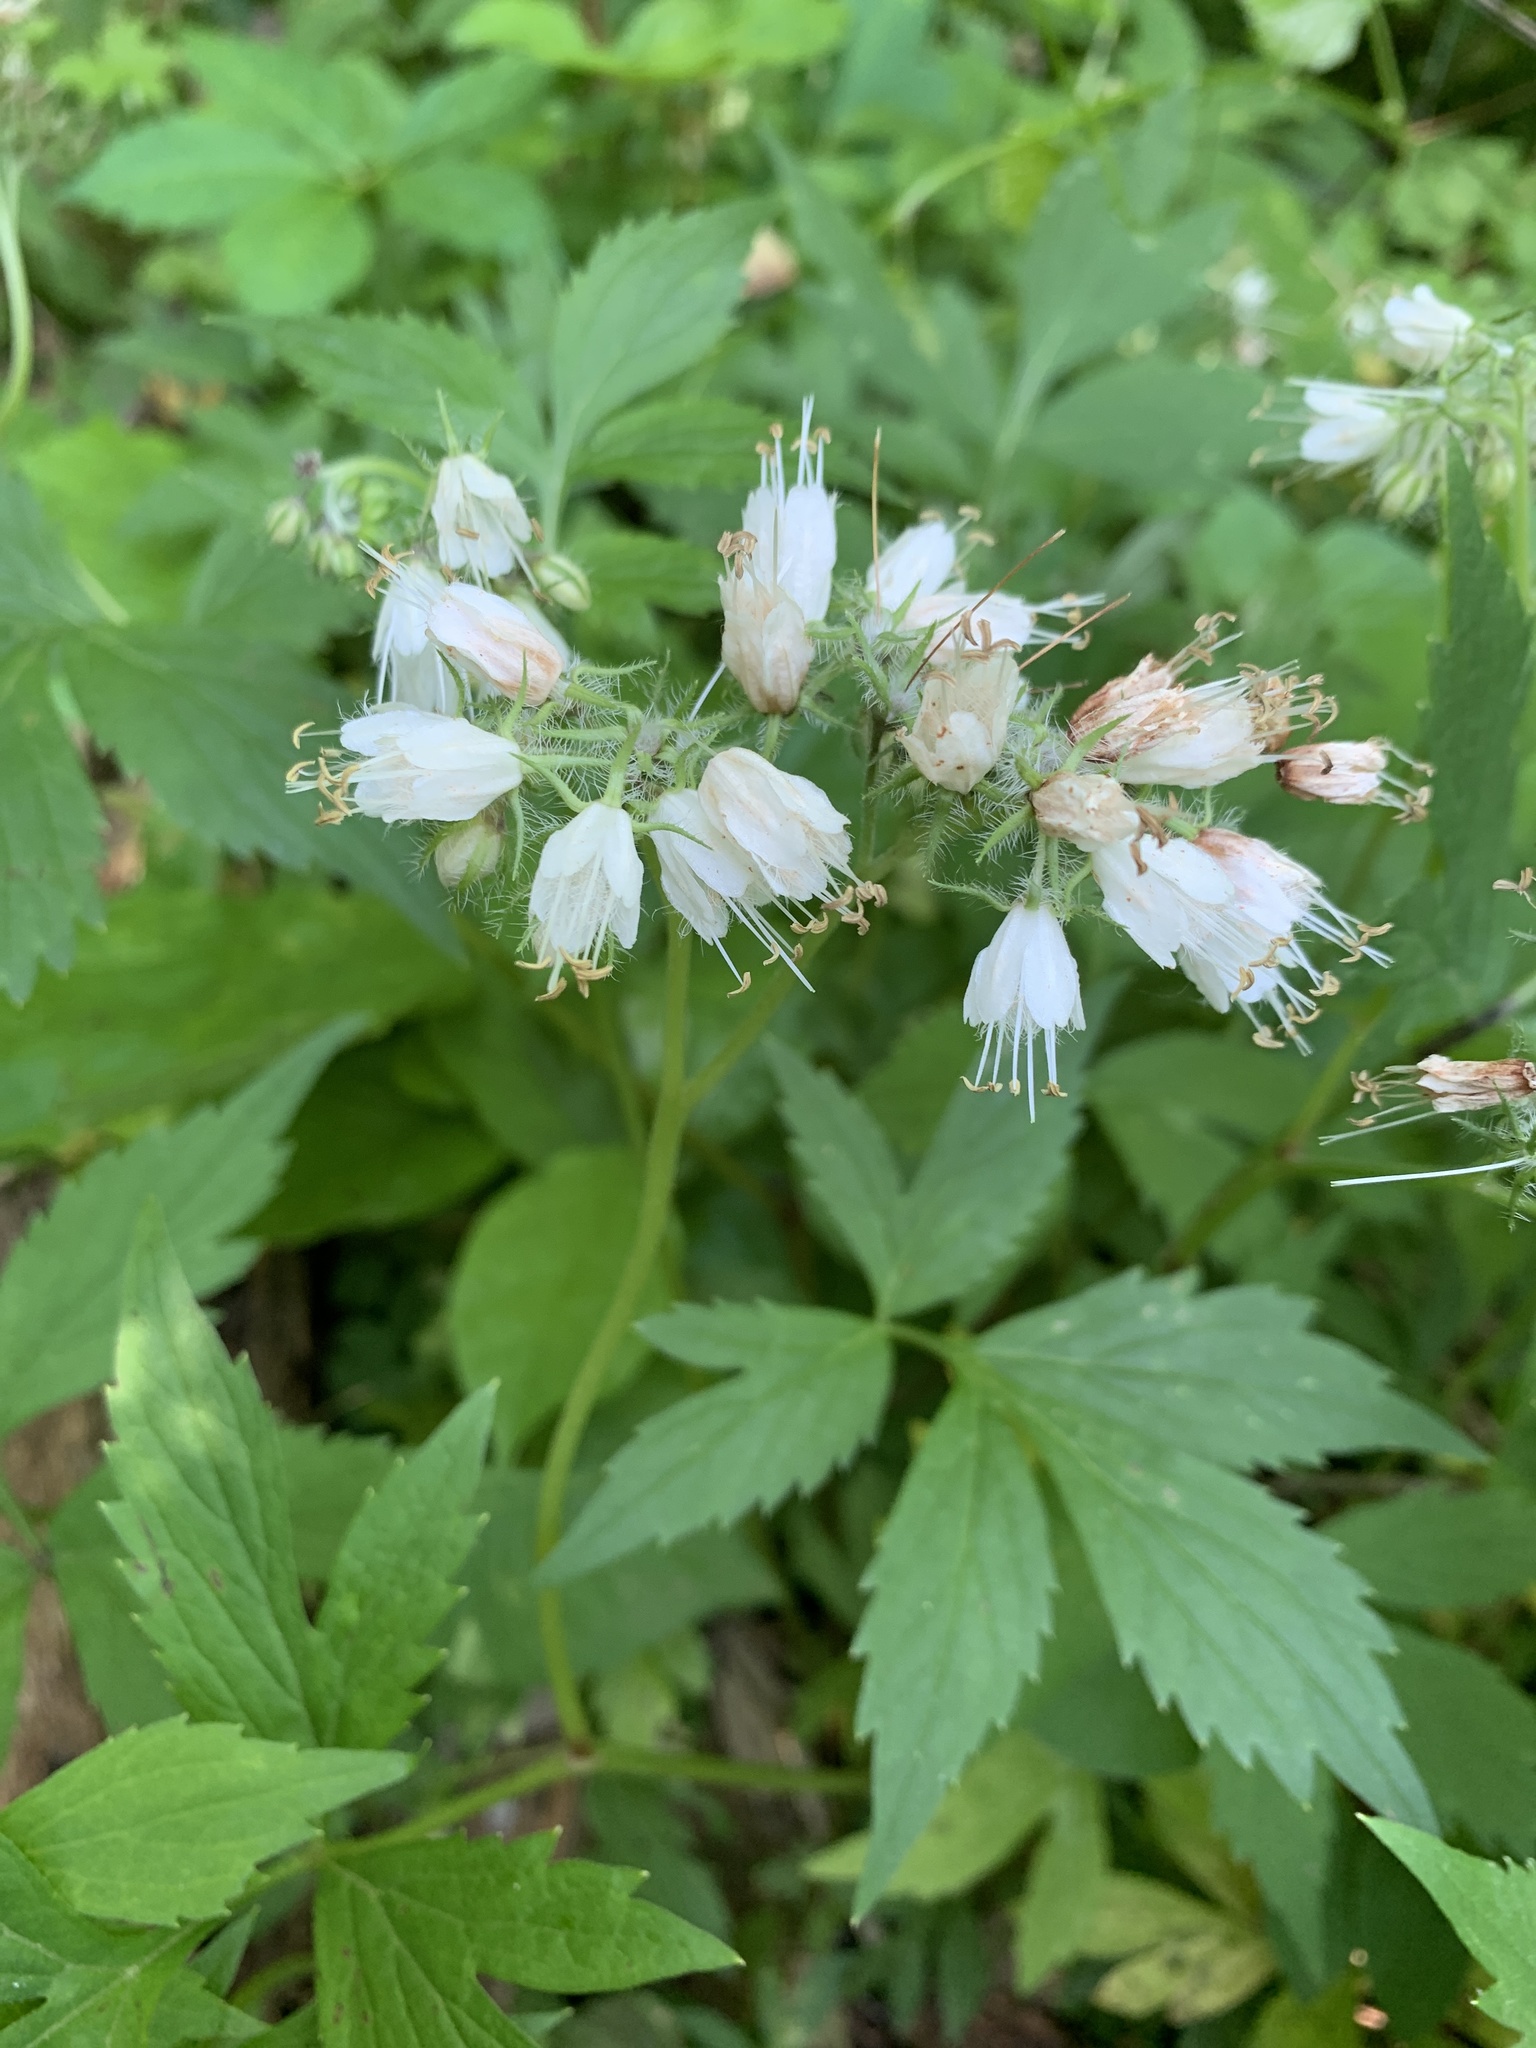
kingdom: Plantae
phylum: Tracheophyta
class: Magnoliopsida
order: Boraginales
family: Hydrophyllaceae
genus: Hydrophyllum
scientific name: Hydrophyllum virginianum
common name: Virginia waterleaf
